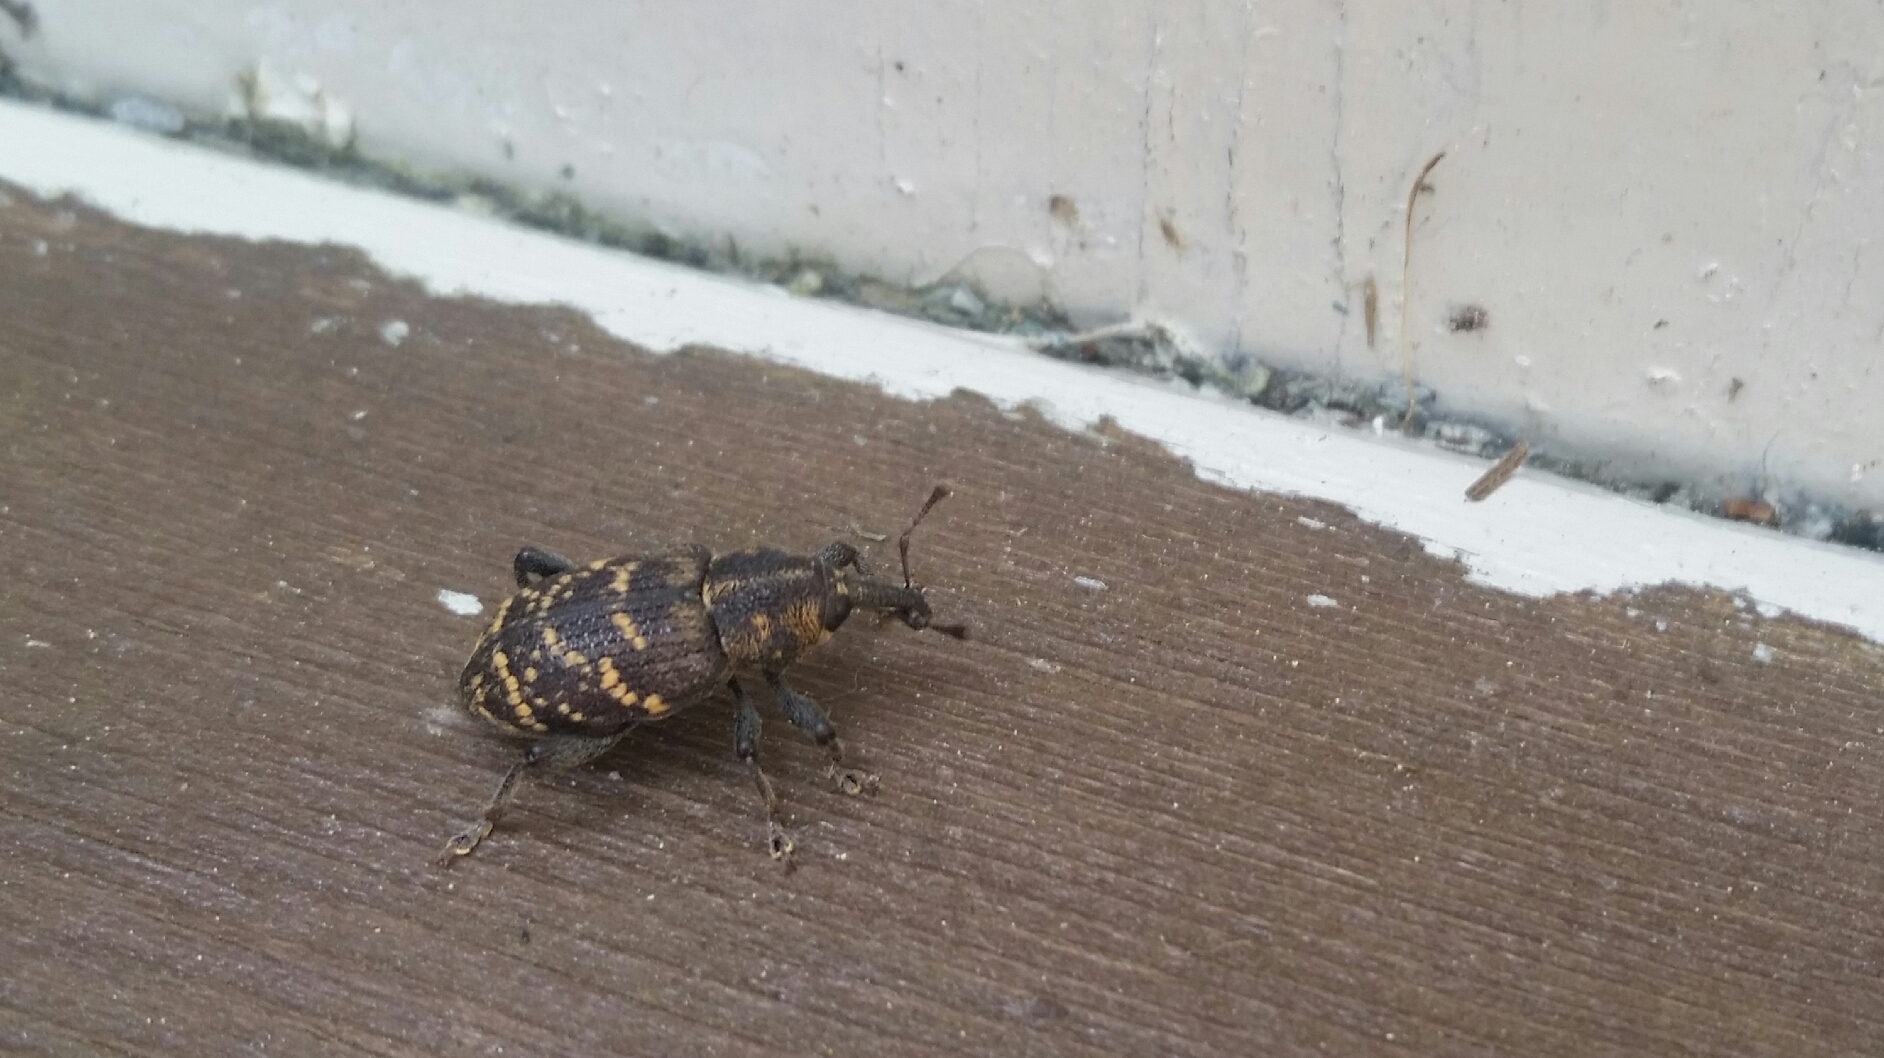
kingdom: Animalia
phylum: Arthropoda
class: Insecta
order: Coleoptera
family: Curculionidae
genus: Hylobius
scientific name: Hylobius abietis
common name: Large pine weevil
